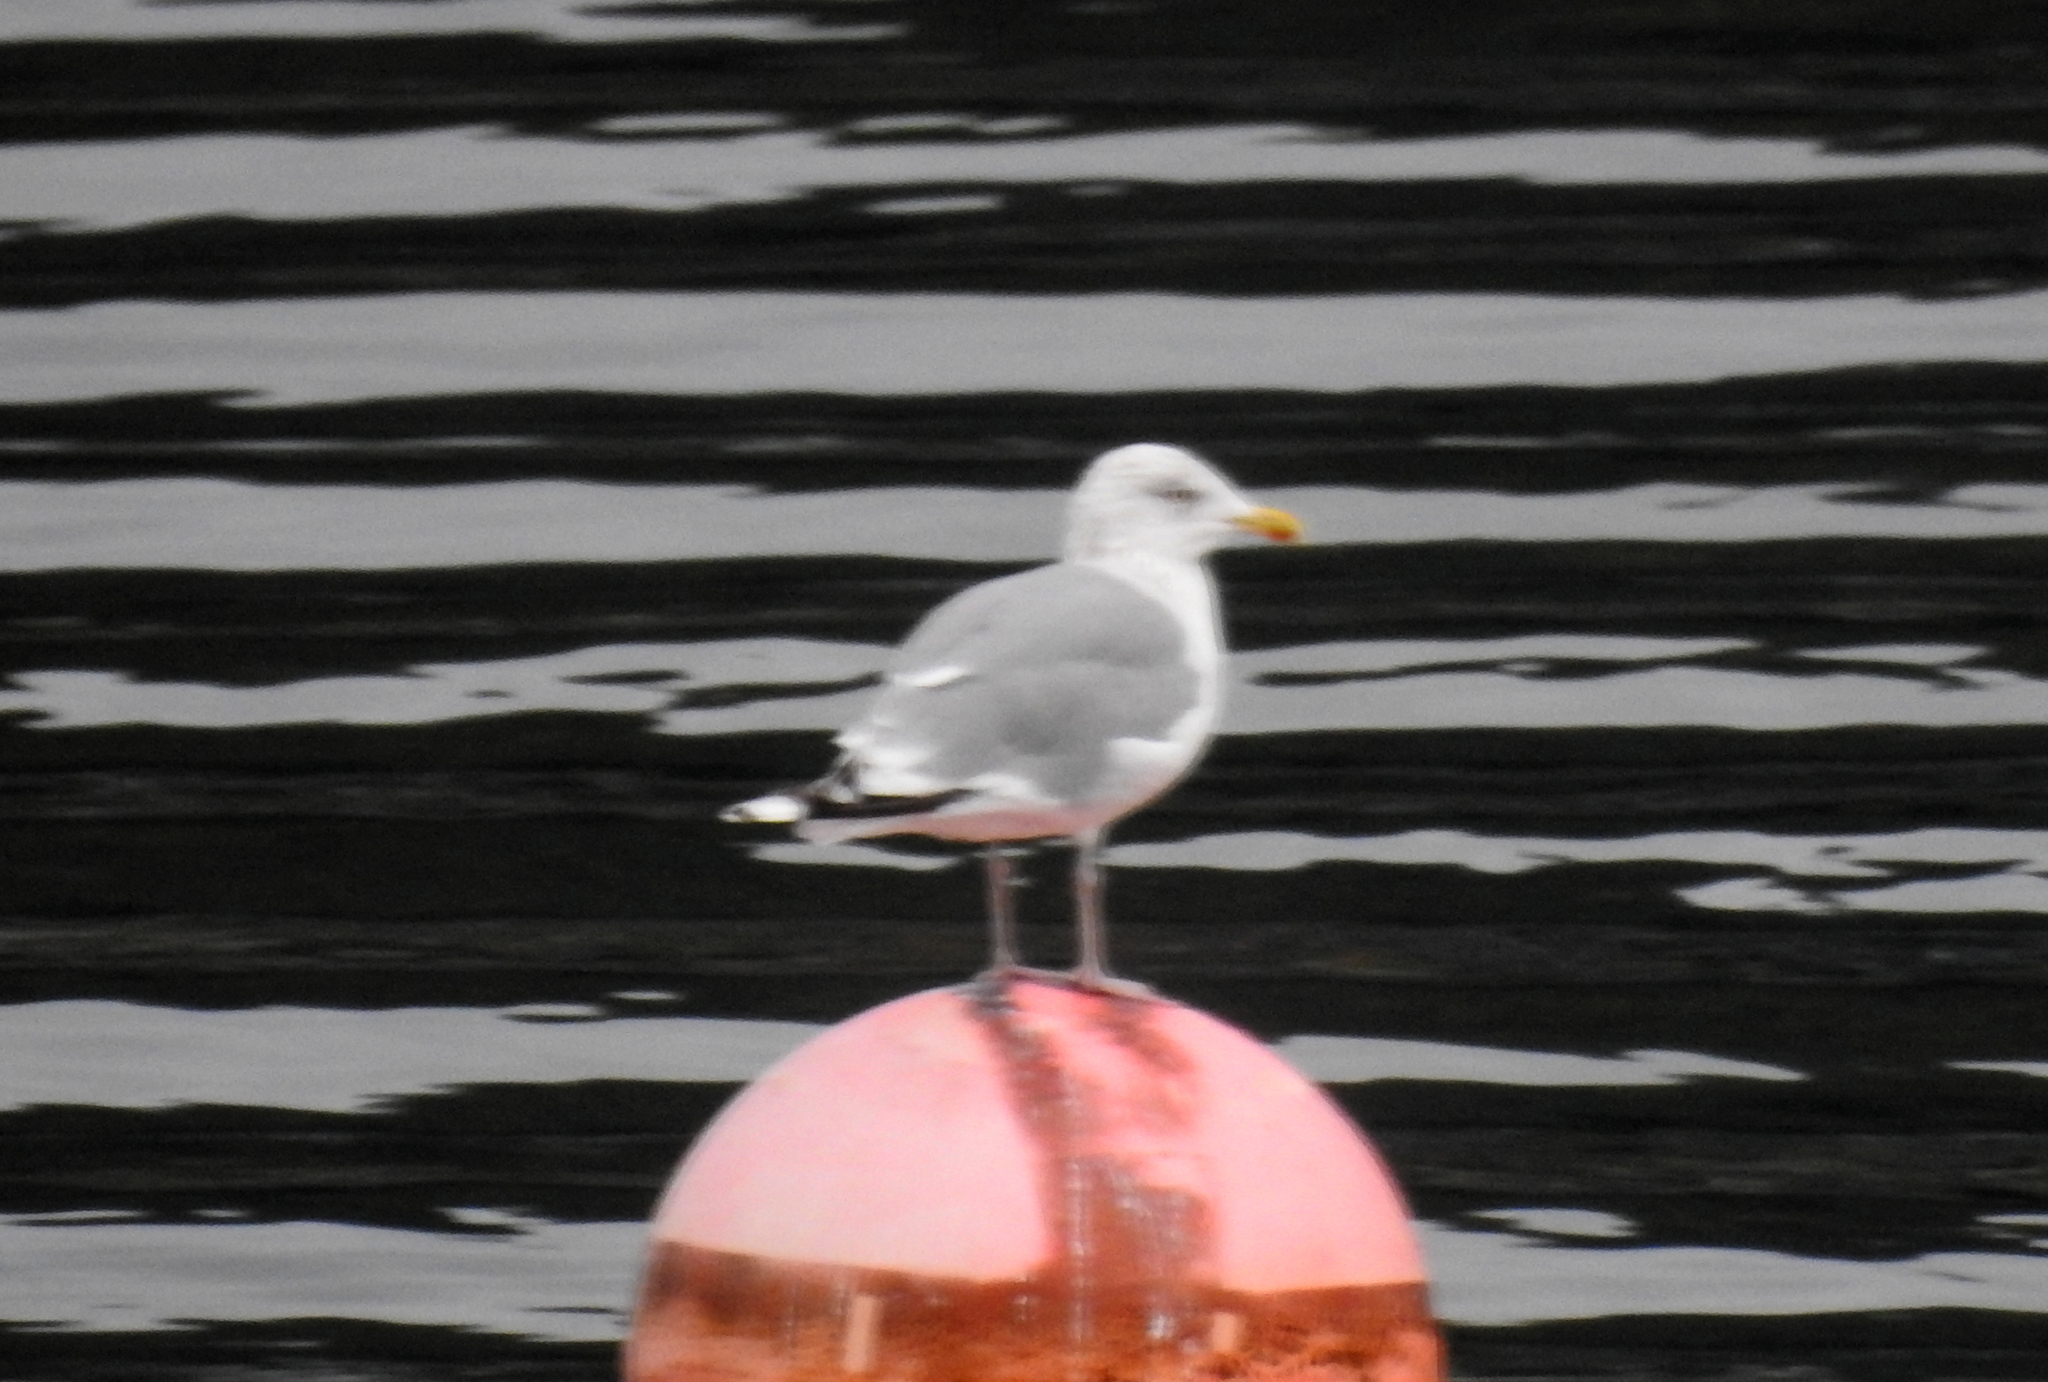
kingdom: Animalia
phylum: Chordata
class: Aves
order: Charadriiformes
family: Laridae
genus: Larus
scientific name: Larus argentatus
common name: Herring gull
